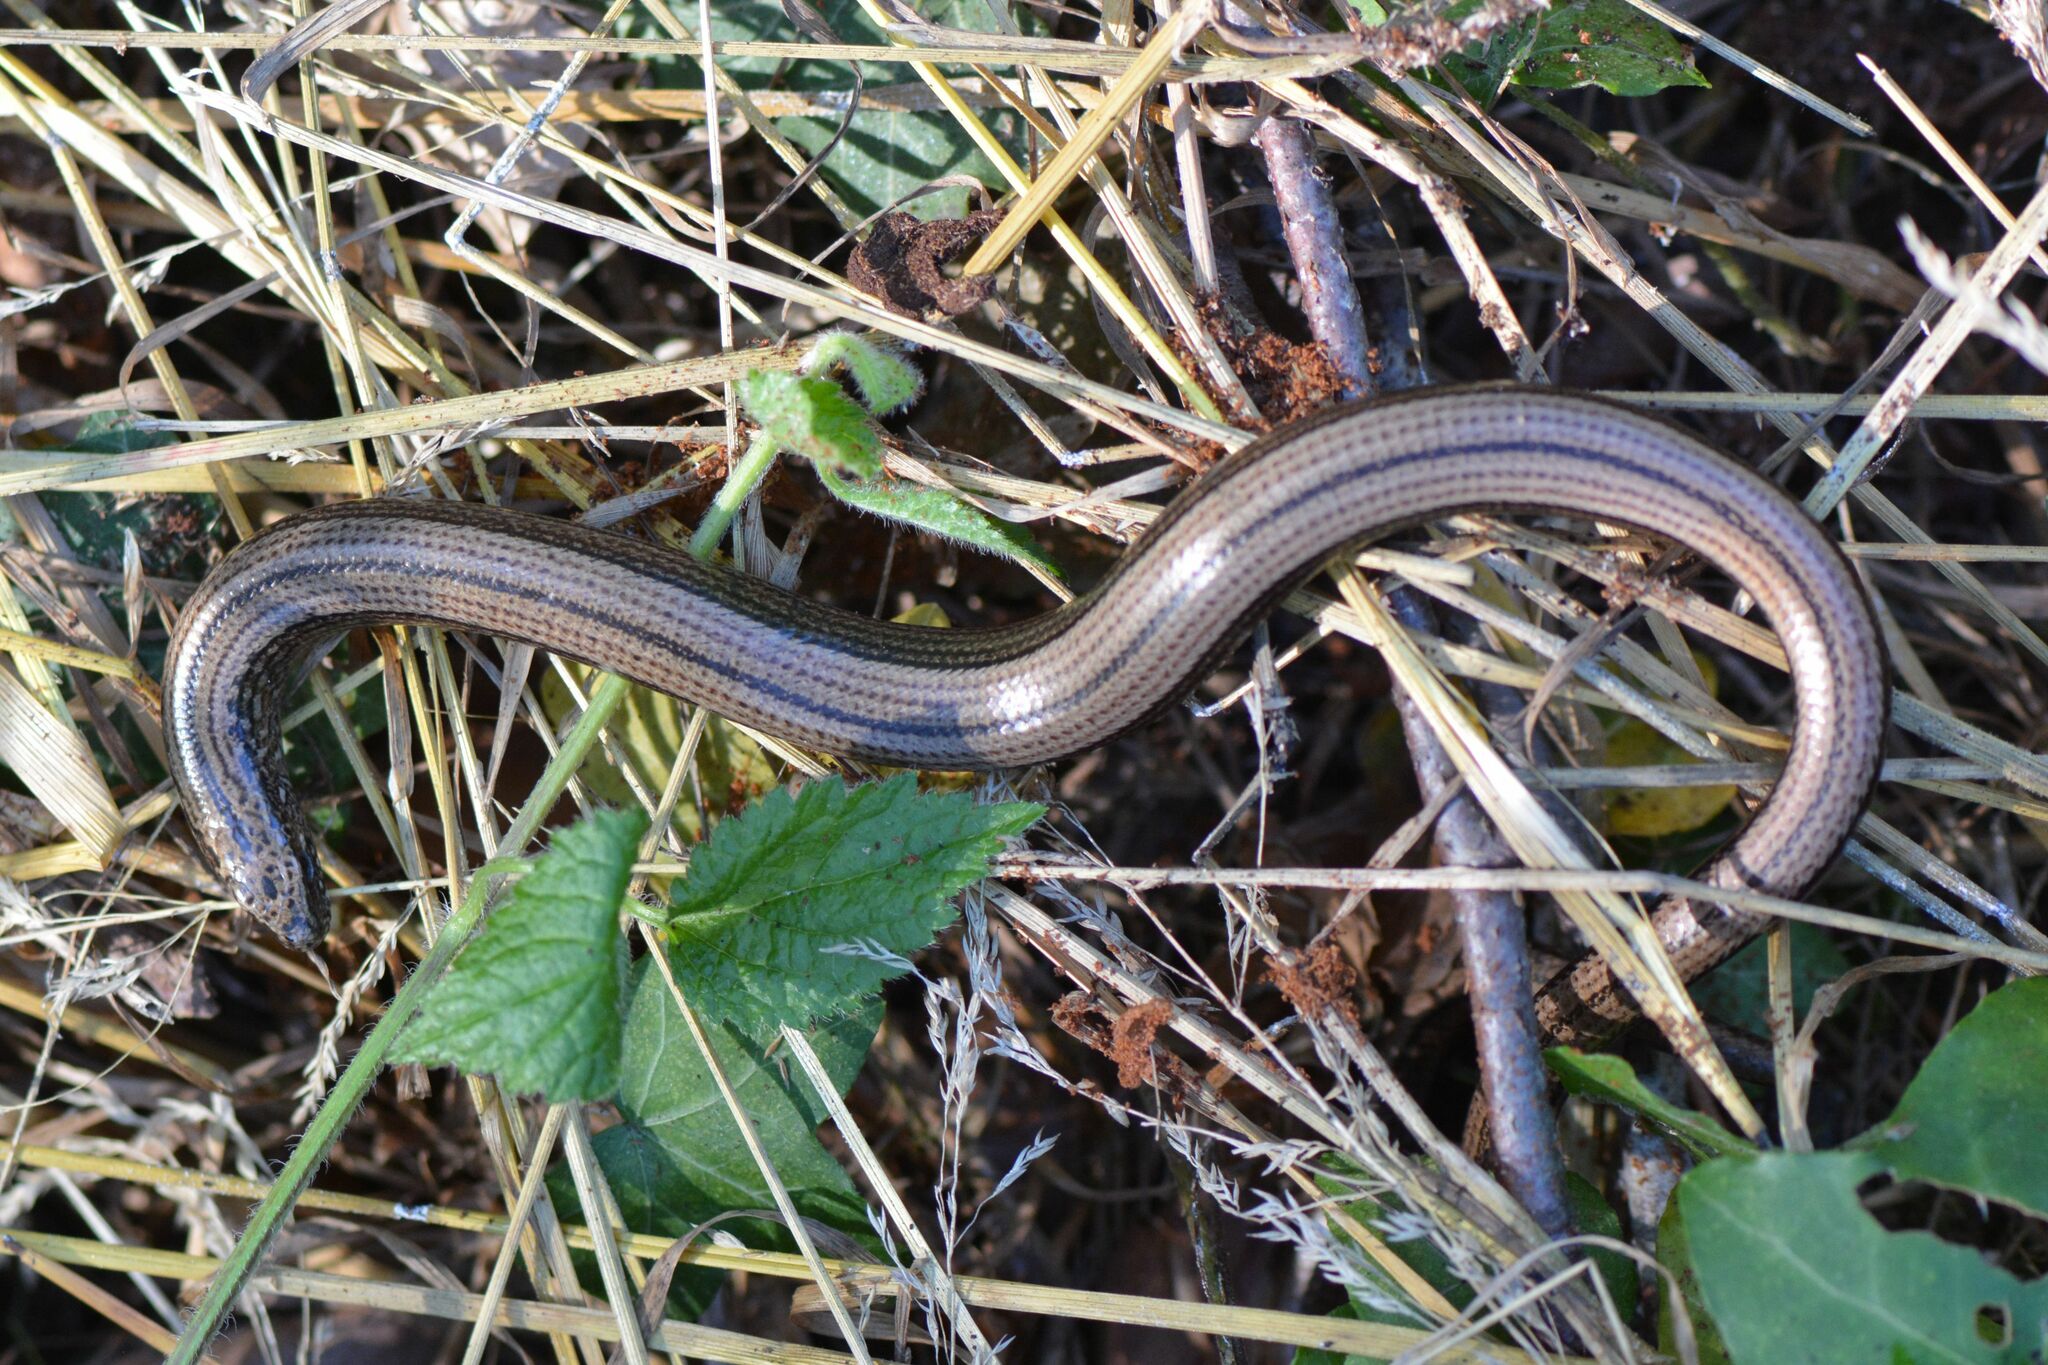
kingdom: Animalia
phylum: Chordata
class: Squamata
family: Anguidae
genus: Anguis
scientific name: Anguis fragilis
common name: Slow worm
